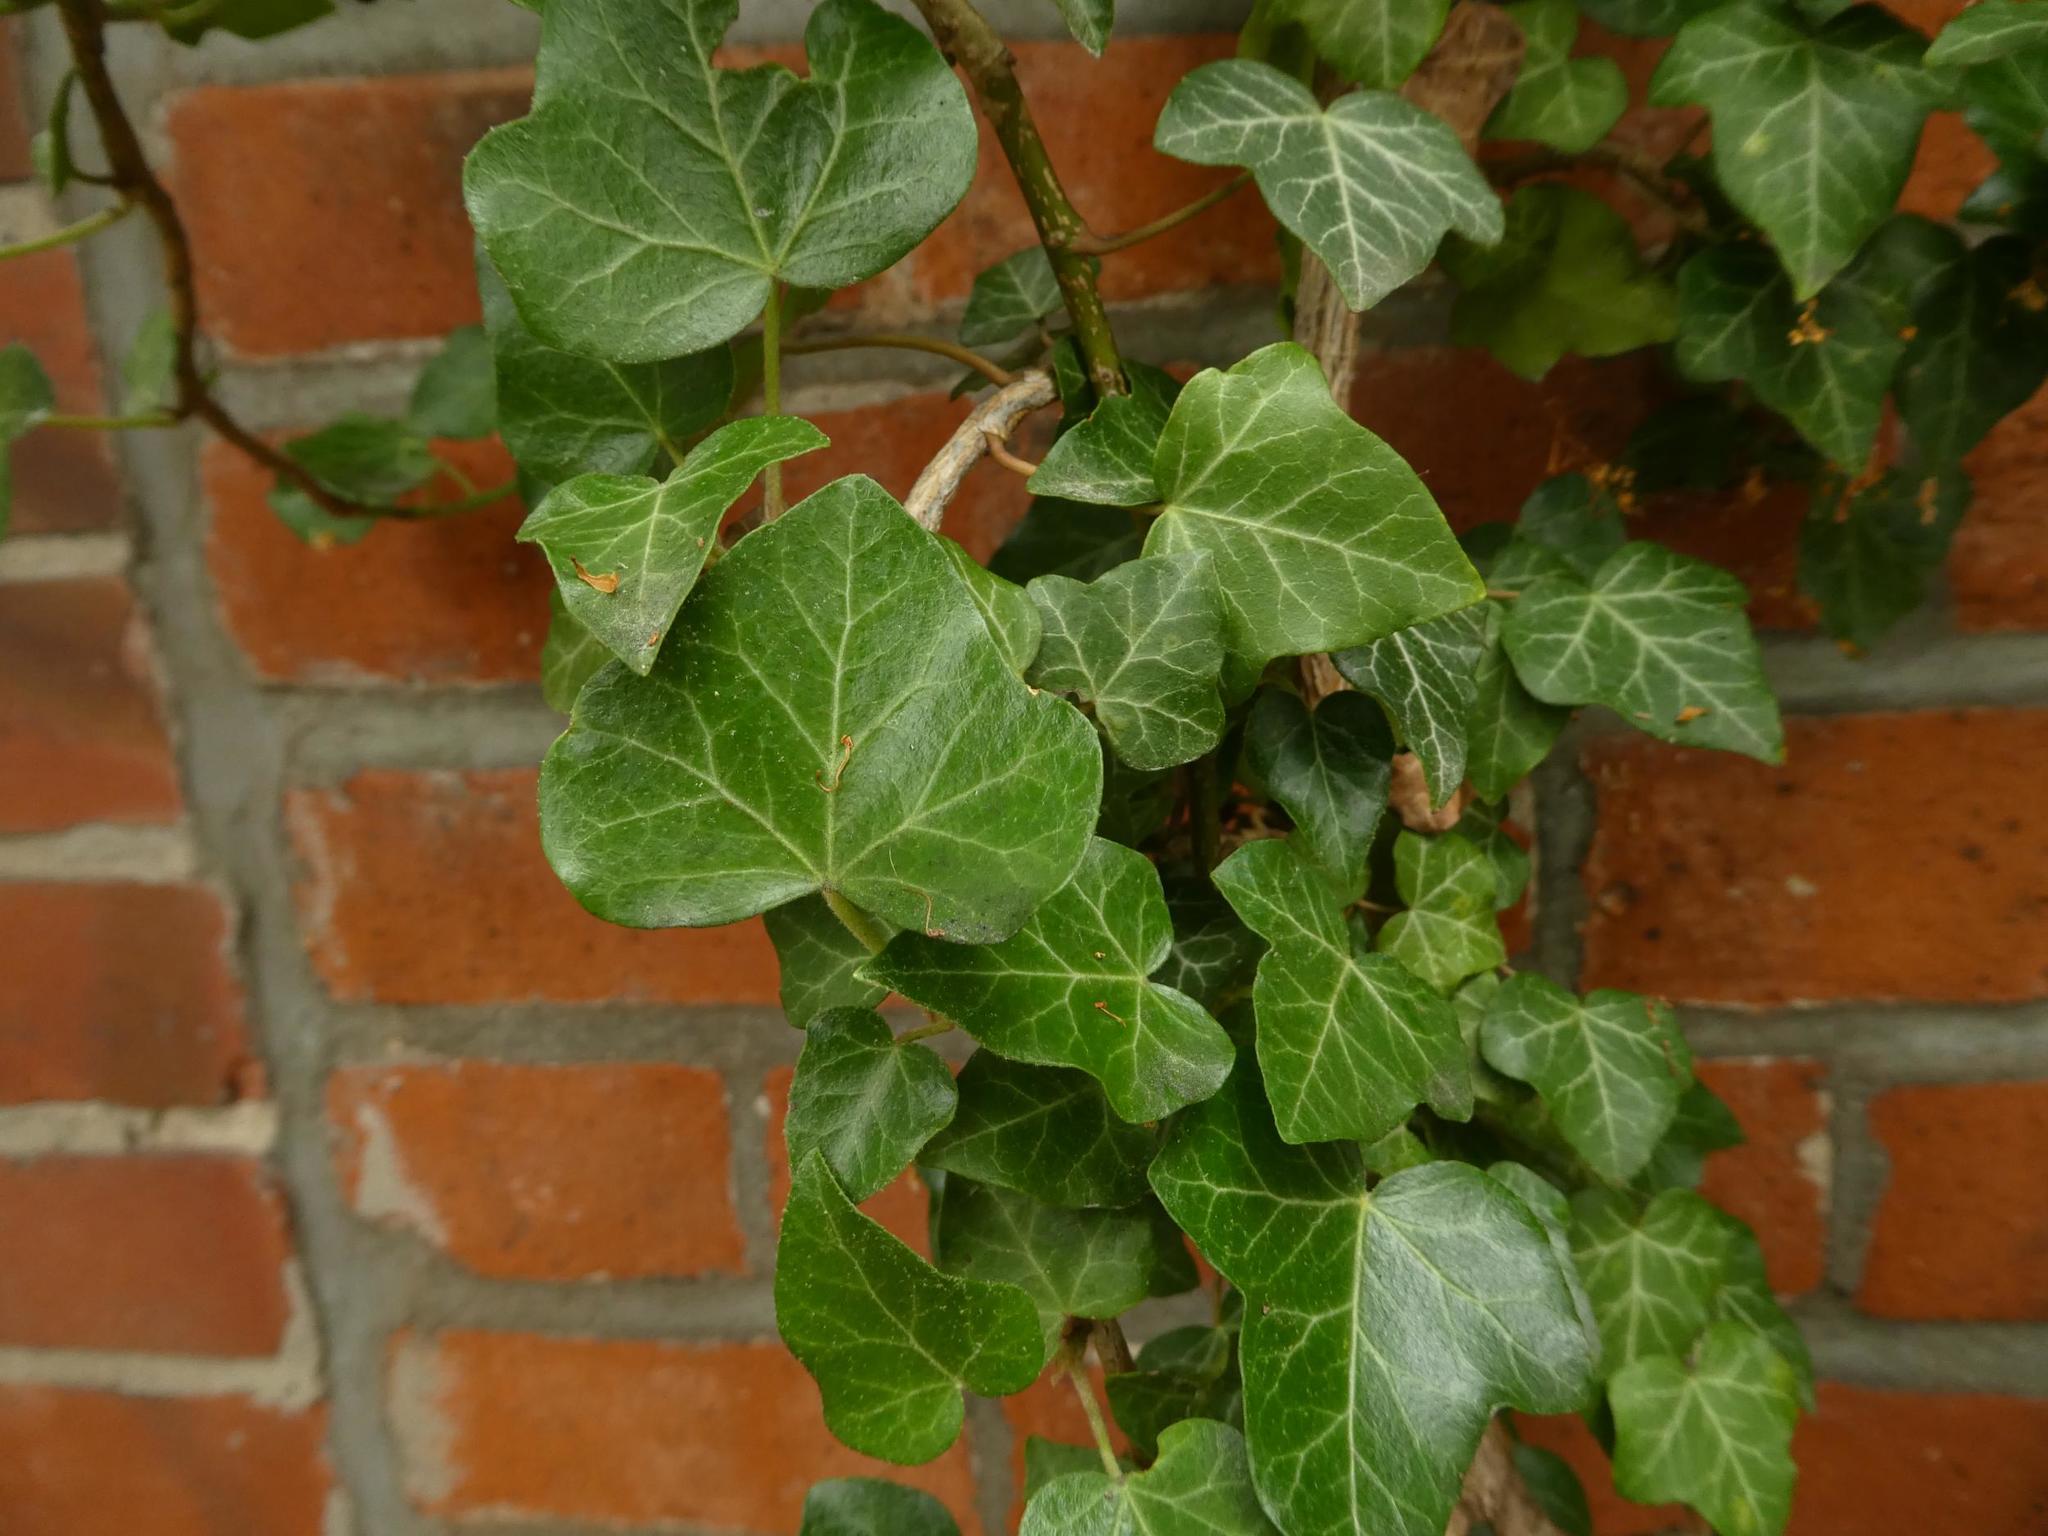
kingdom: Plantae
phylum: Tracheophyta
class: Magnoliopsida
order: Apiales
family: Araliaceae
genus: Hedera
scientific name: Hedera helix
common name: Ivy
